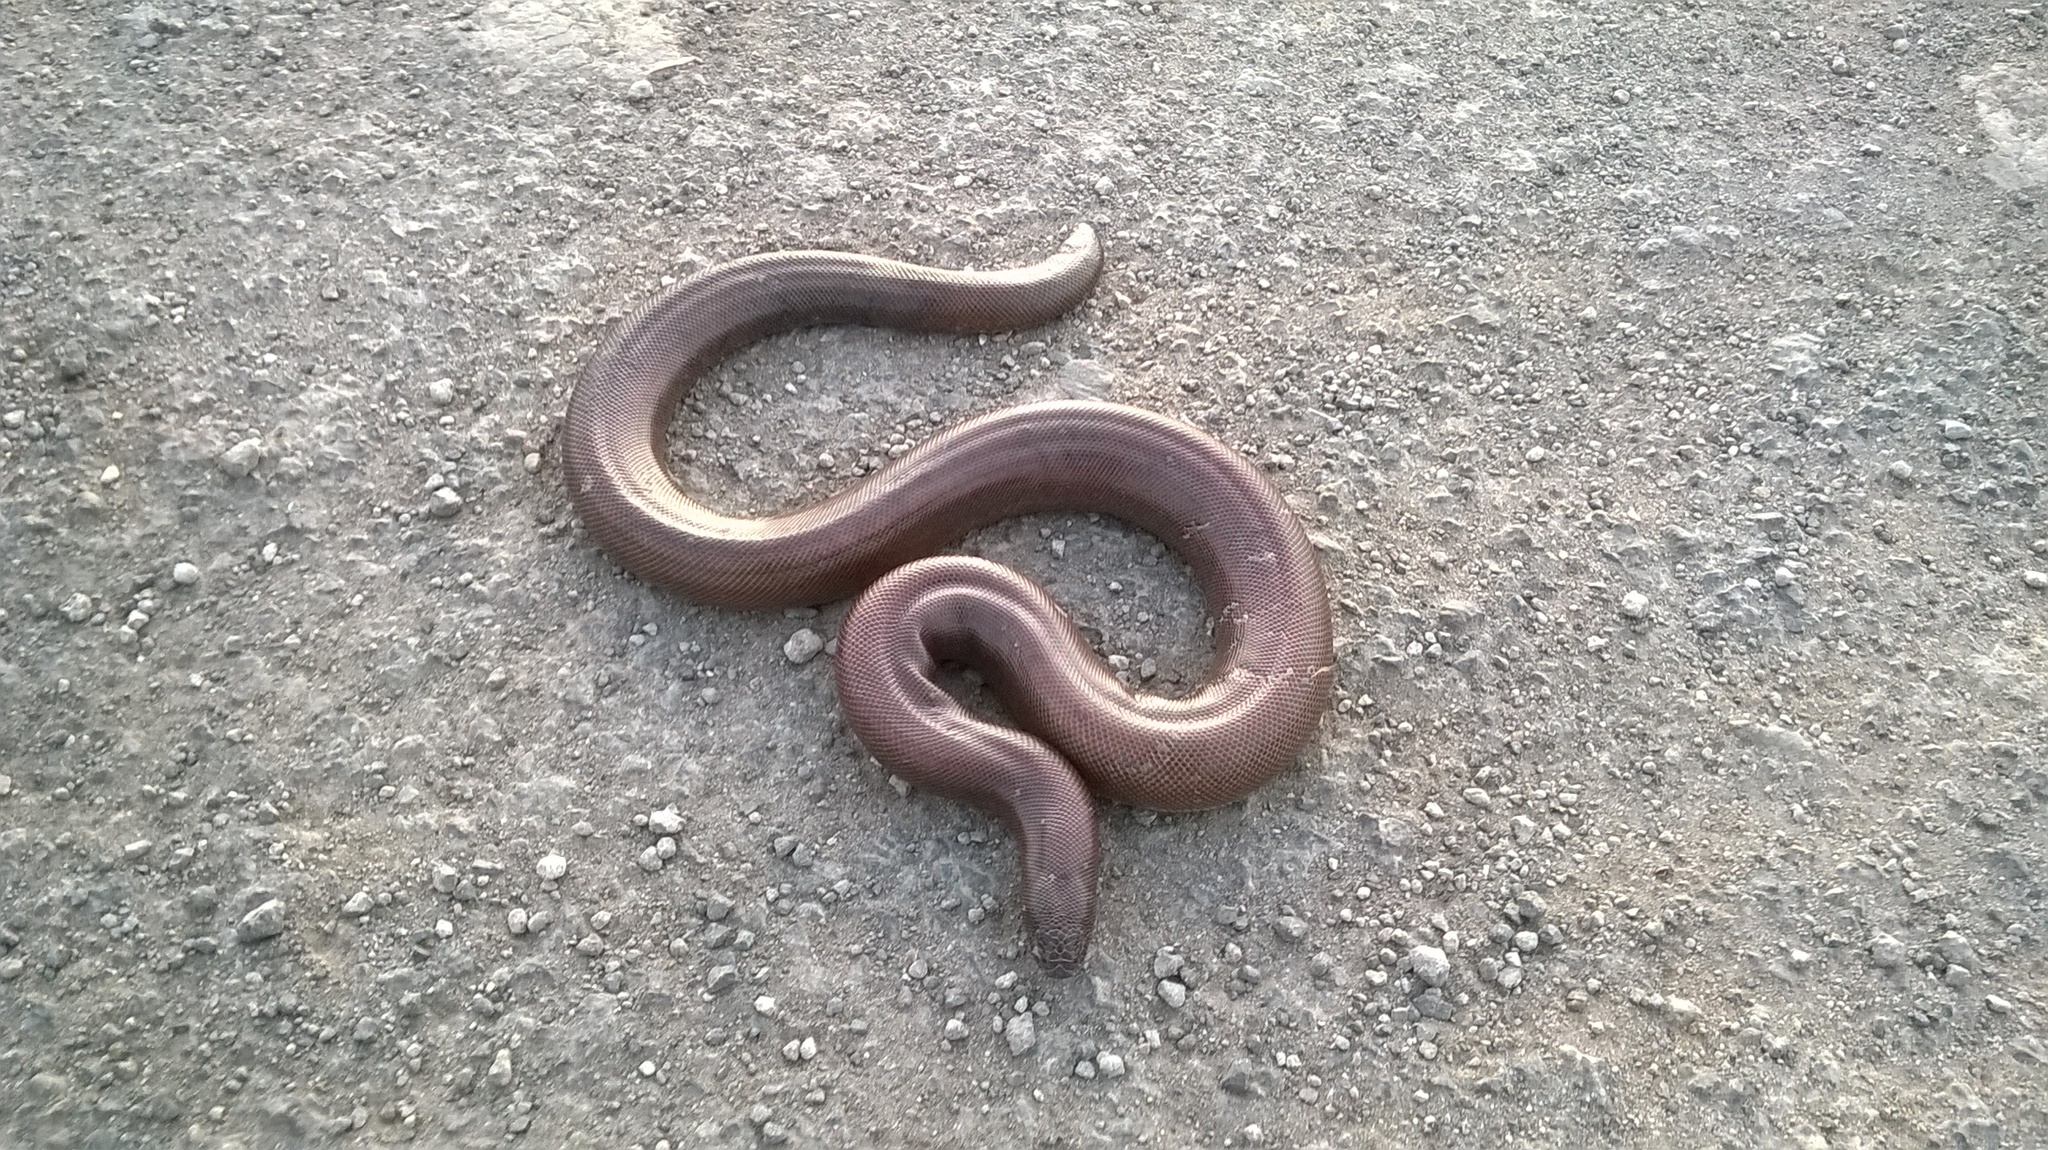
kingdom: Animalia
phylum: Chordata
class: Squamata
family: Boidae
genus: Eryx
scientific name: Eryx johnii
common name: Brown sand boa
